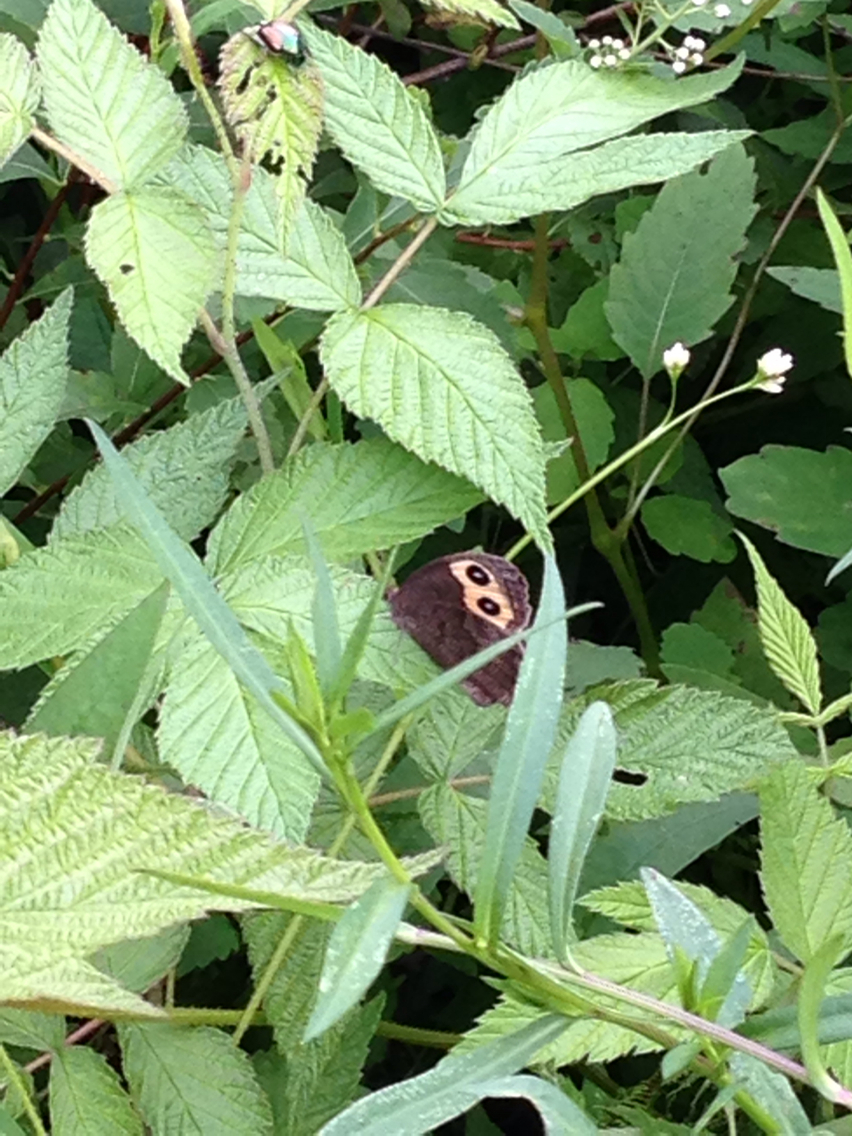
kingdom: Animalia
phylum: Arthropoda
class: Insecta
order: Lepidoptera
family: Nymphalidae
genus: Cercyonis
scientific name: Cercyonis pegala
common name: Common wood-nymph
